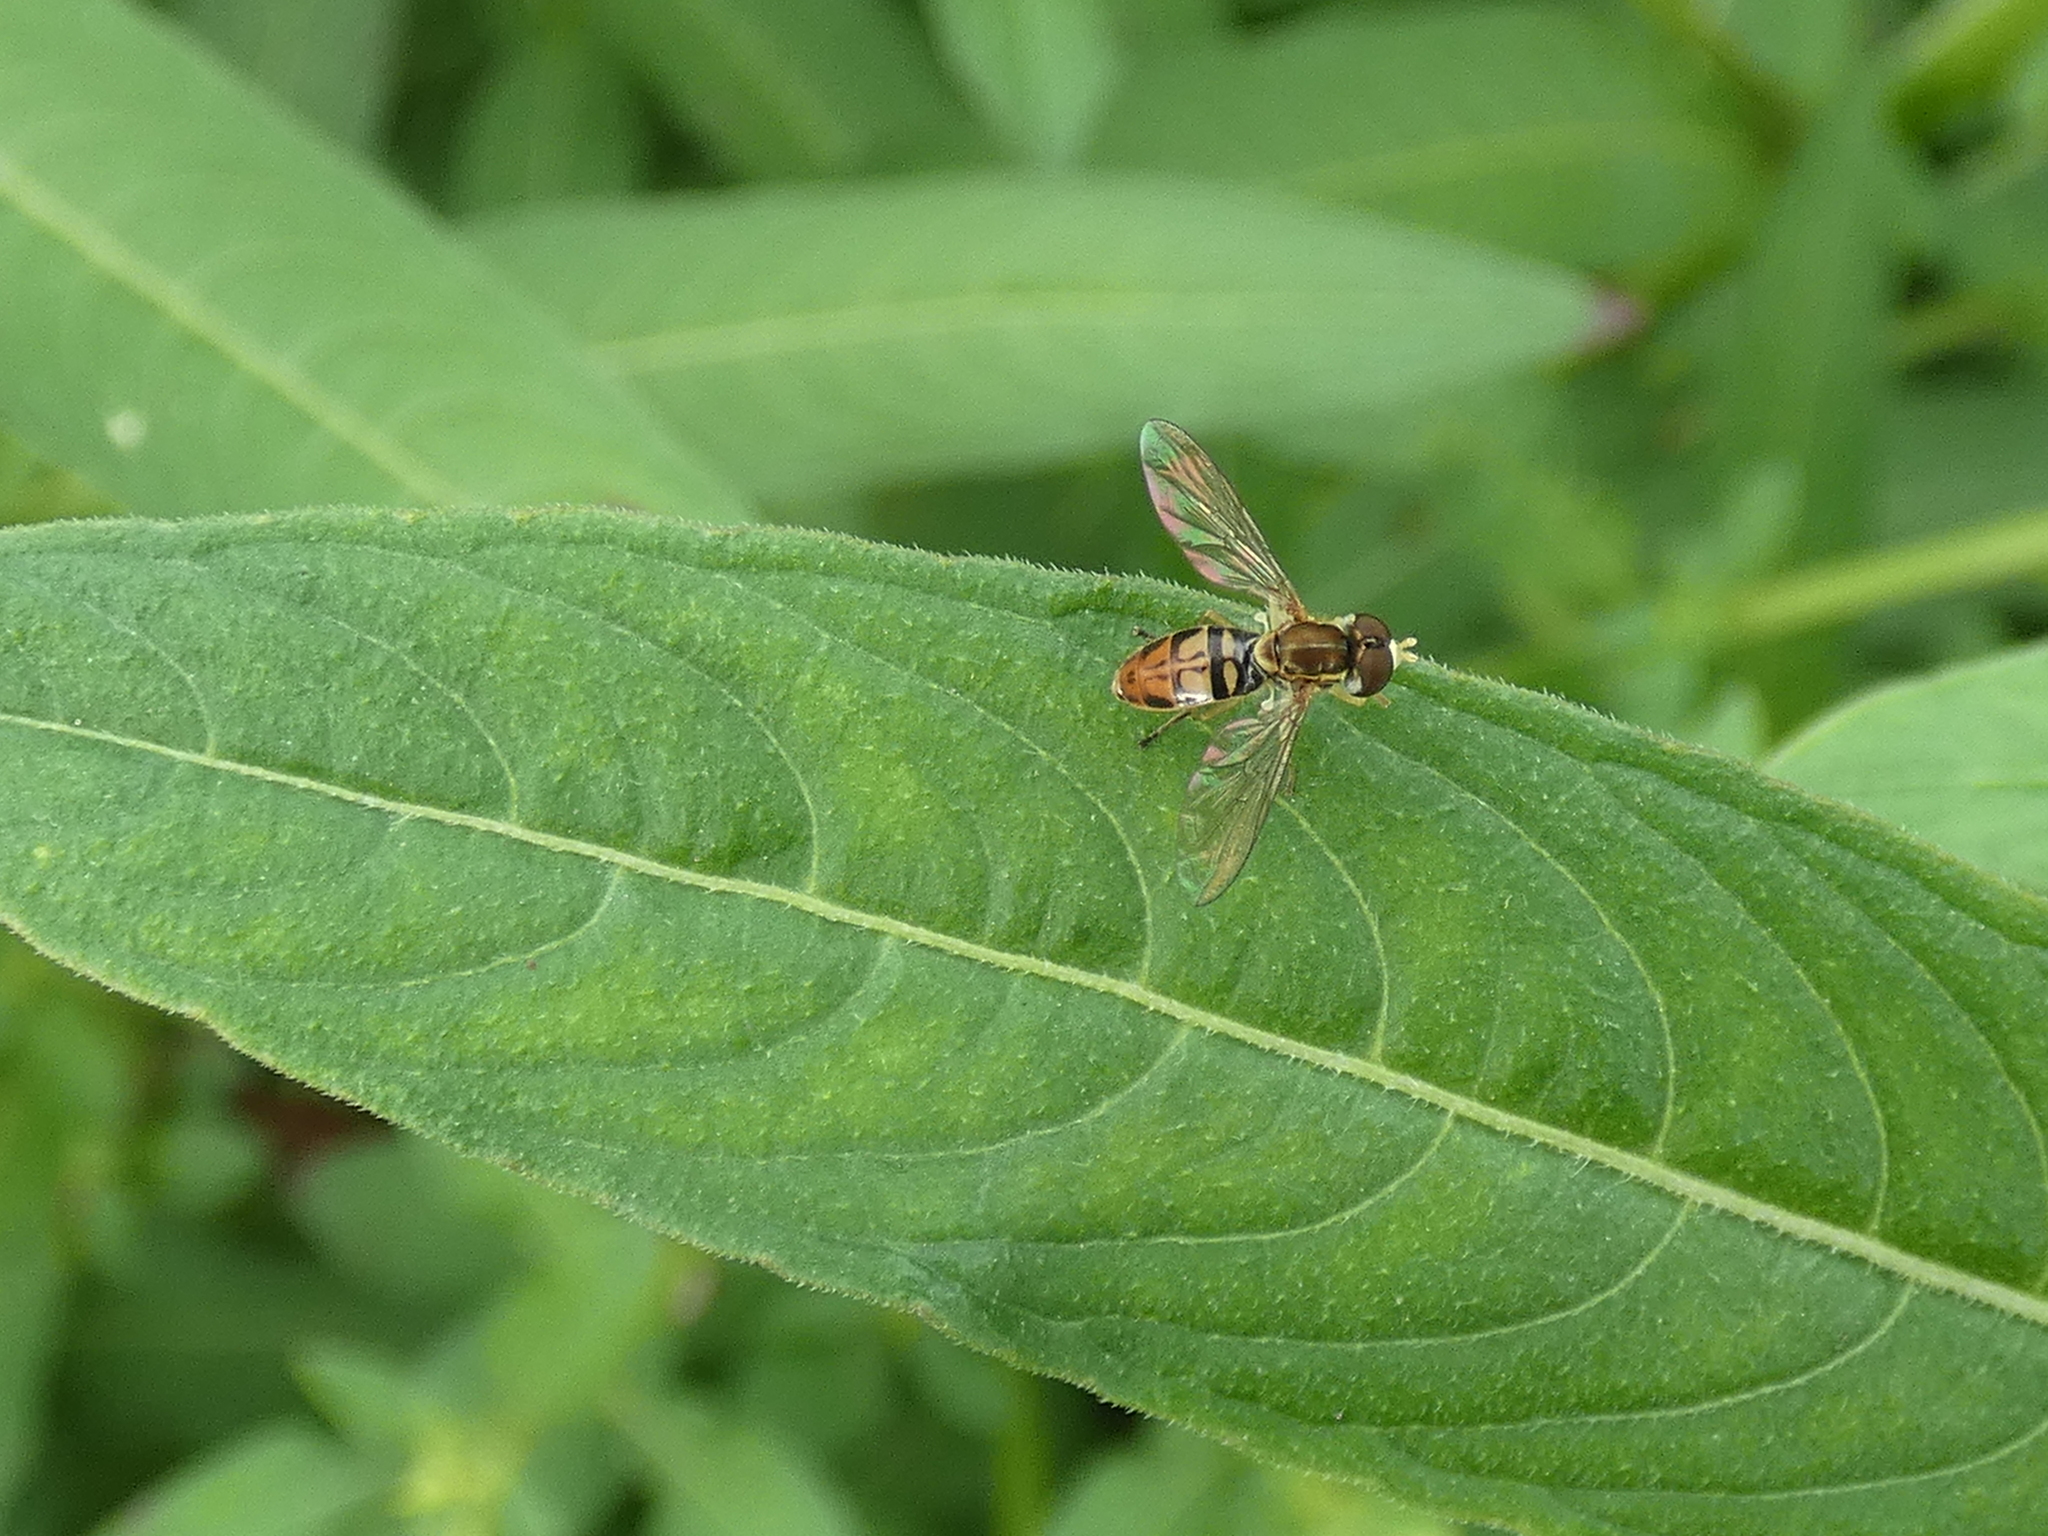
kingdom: Animalia
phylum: Arthropoda
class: Insecta
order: Diptera
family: Syrphidae
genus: Toxomerus
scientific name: Toxomerus marginatus
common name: Syrphid fly
